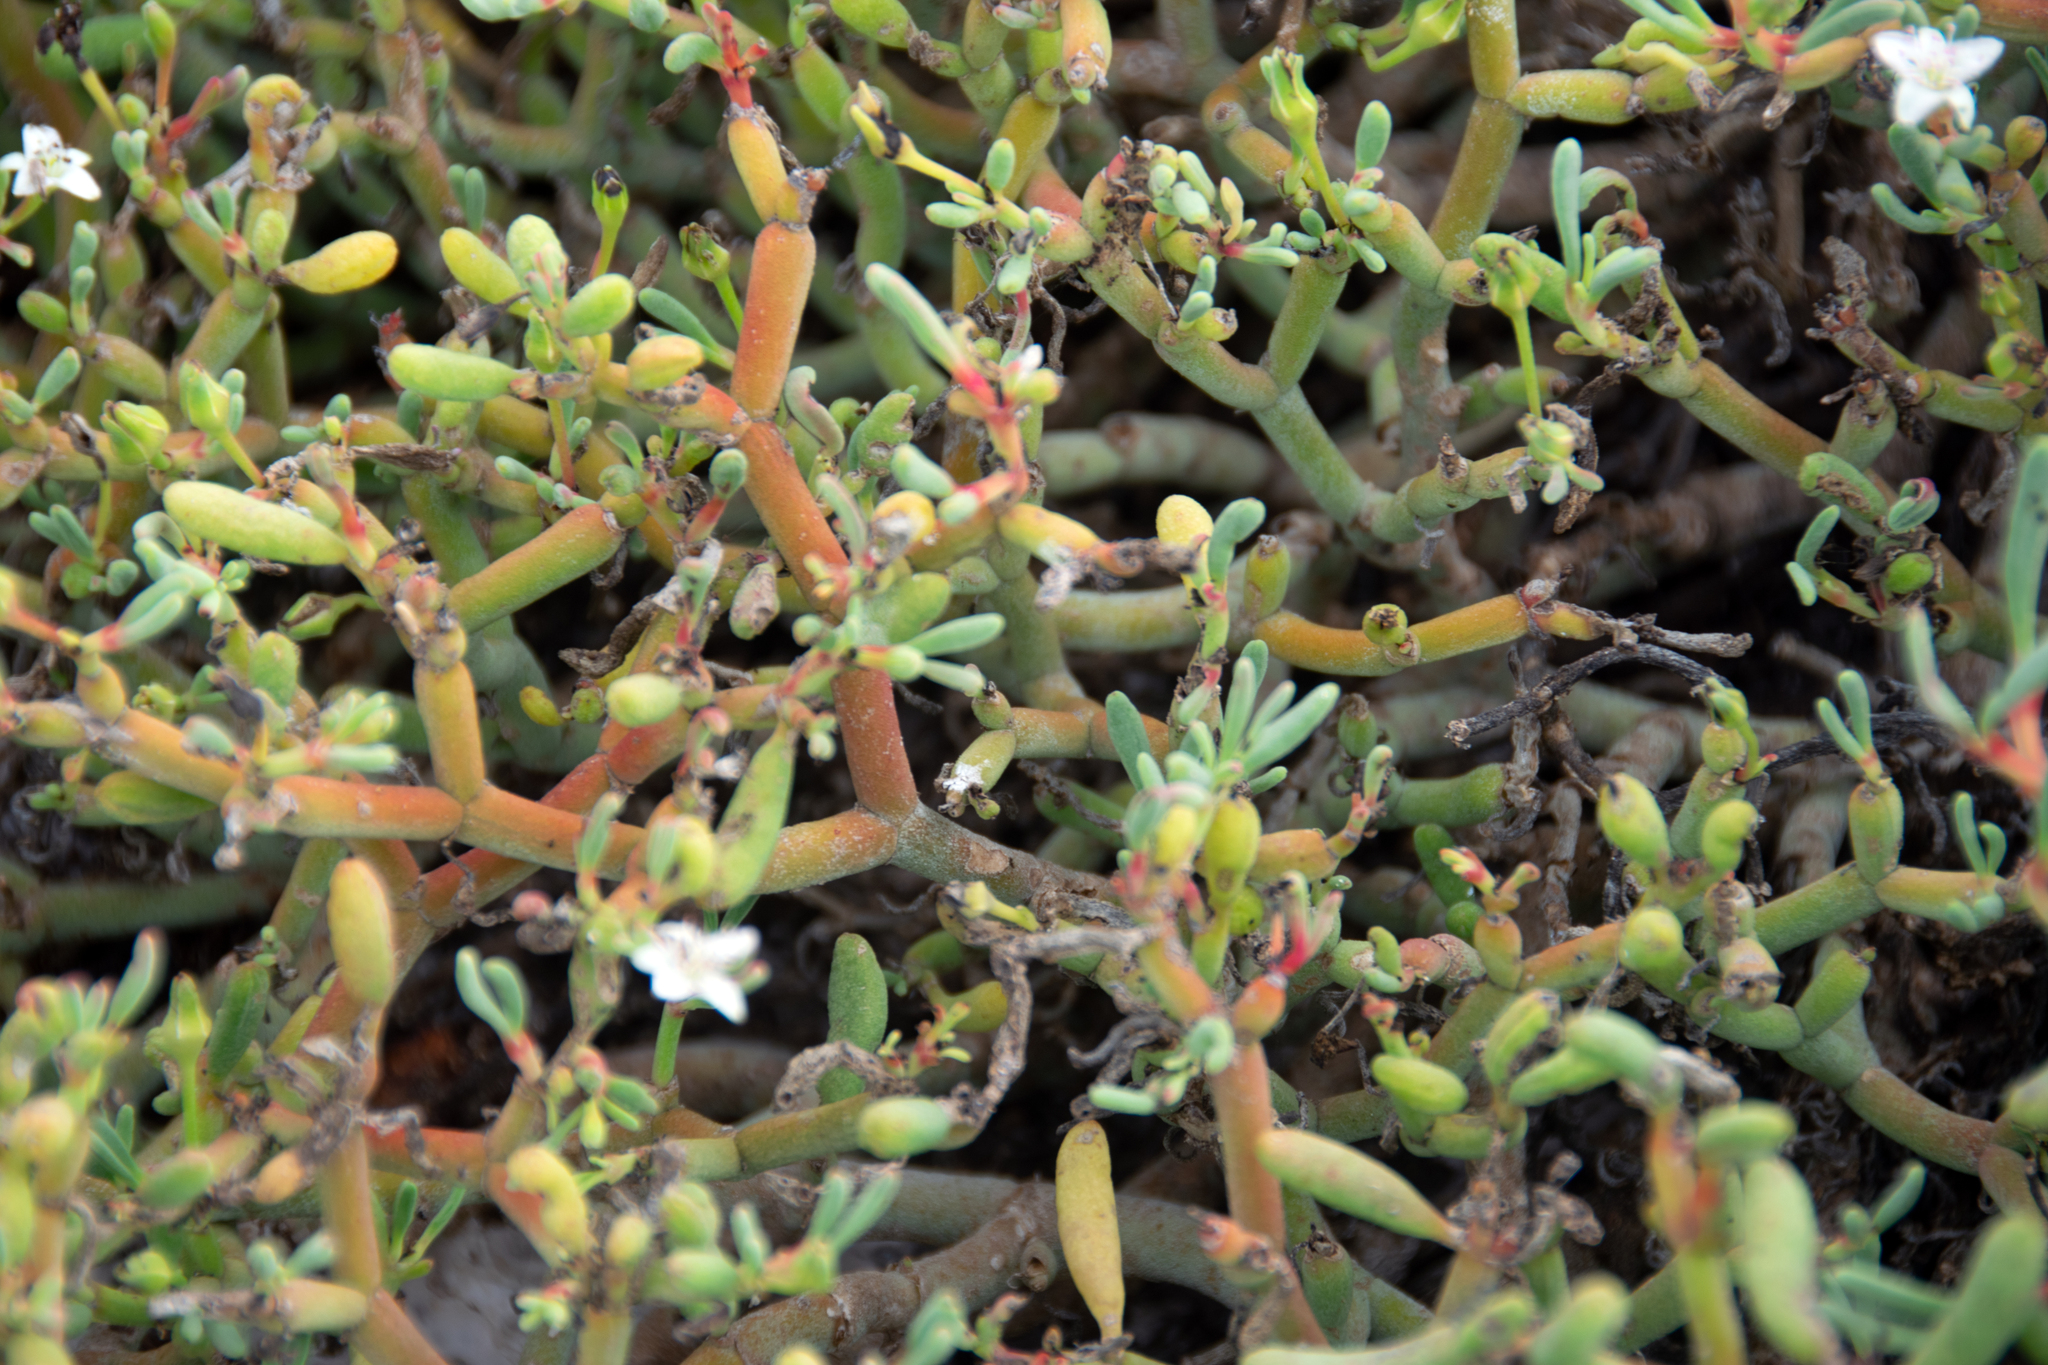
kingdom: Plantae
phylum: Tracheophyta
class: Magnoliopsida
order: Caryophyllales
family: Aizoaceae
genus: Sesuvium
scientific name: Sesuvium edmonstonei
